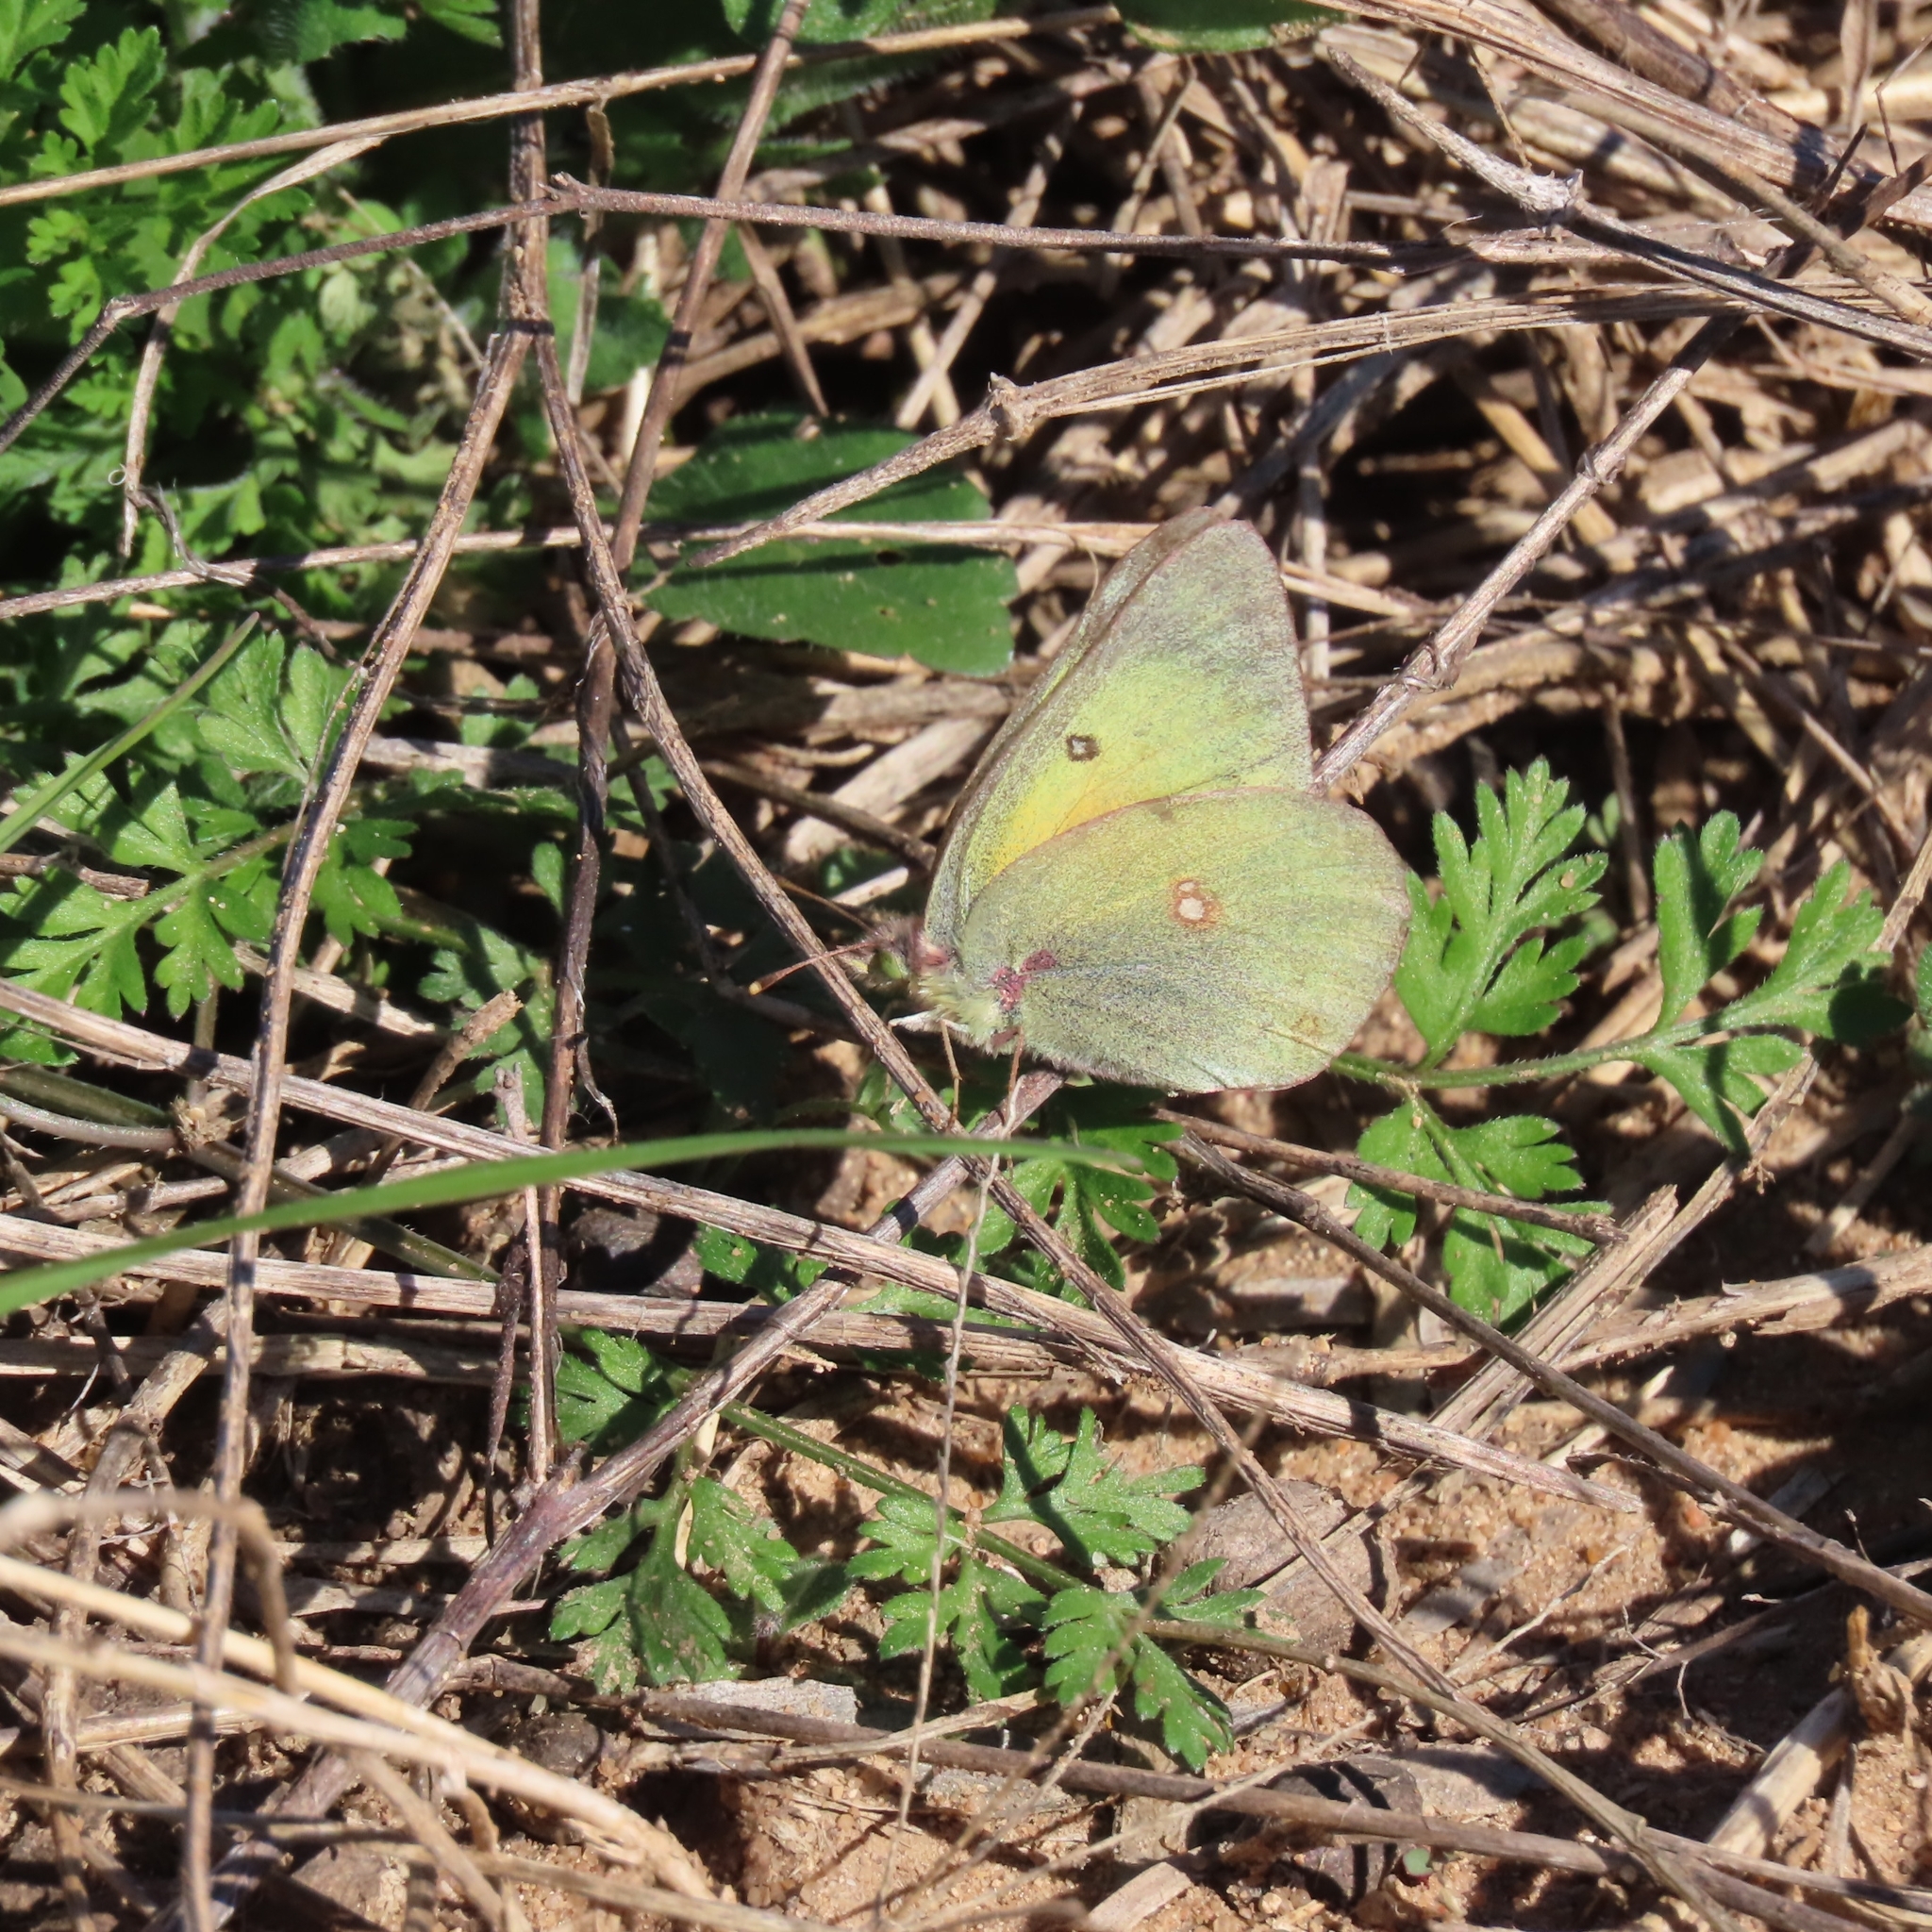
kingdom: Animalia
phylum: Arthropoda
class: Insecta
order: Lepidoptera
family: Pieridae
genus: Colias
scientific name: Colias eurytheme
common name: Alfalfa butterfly
